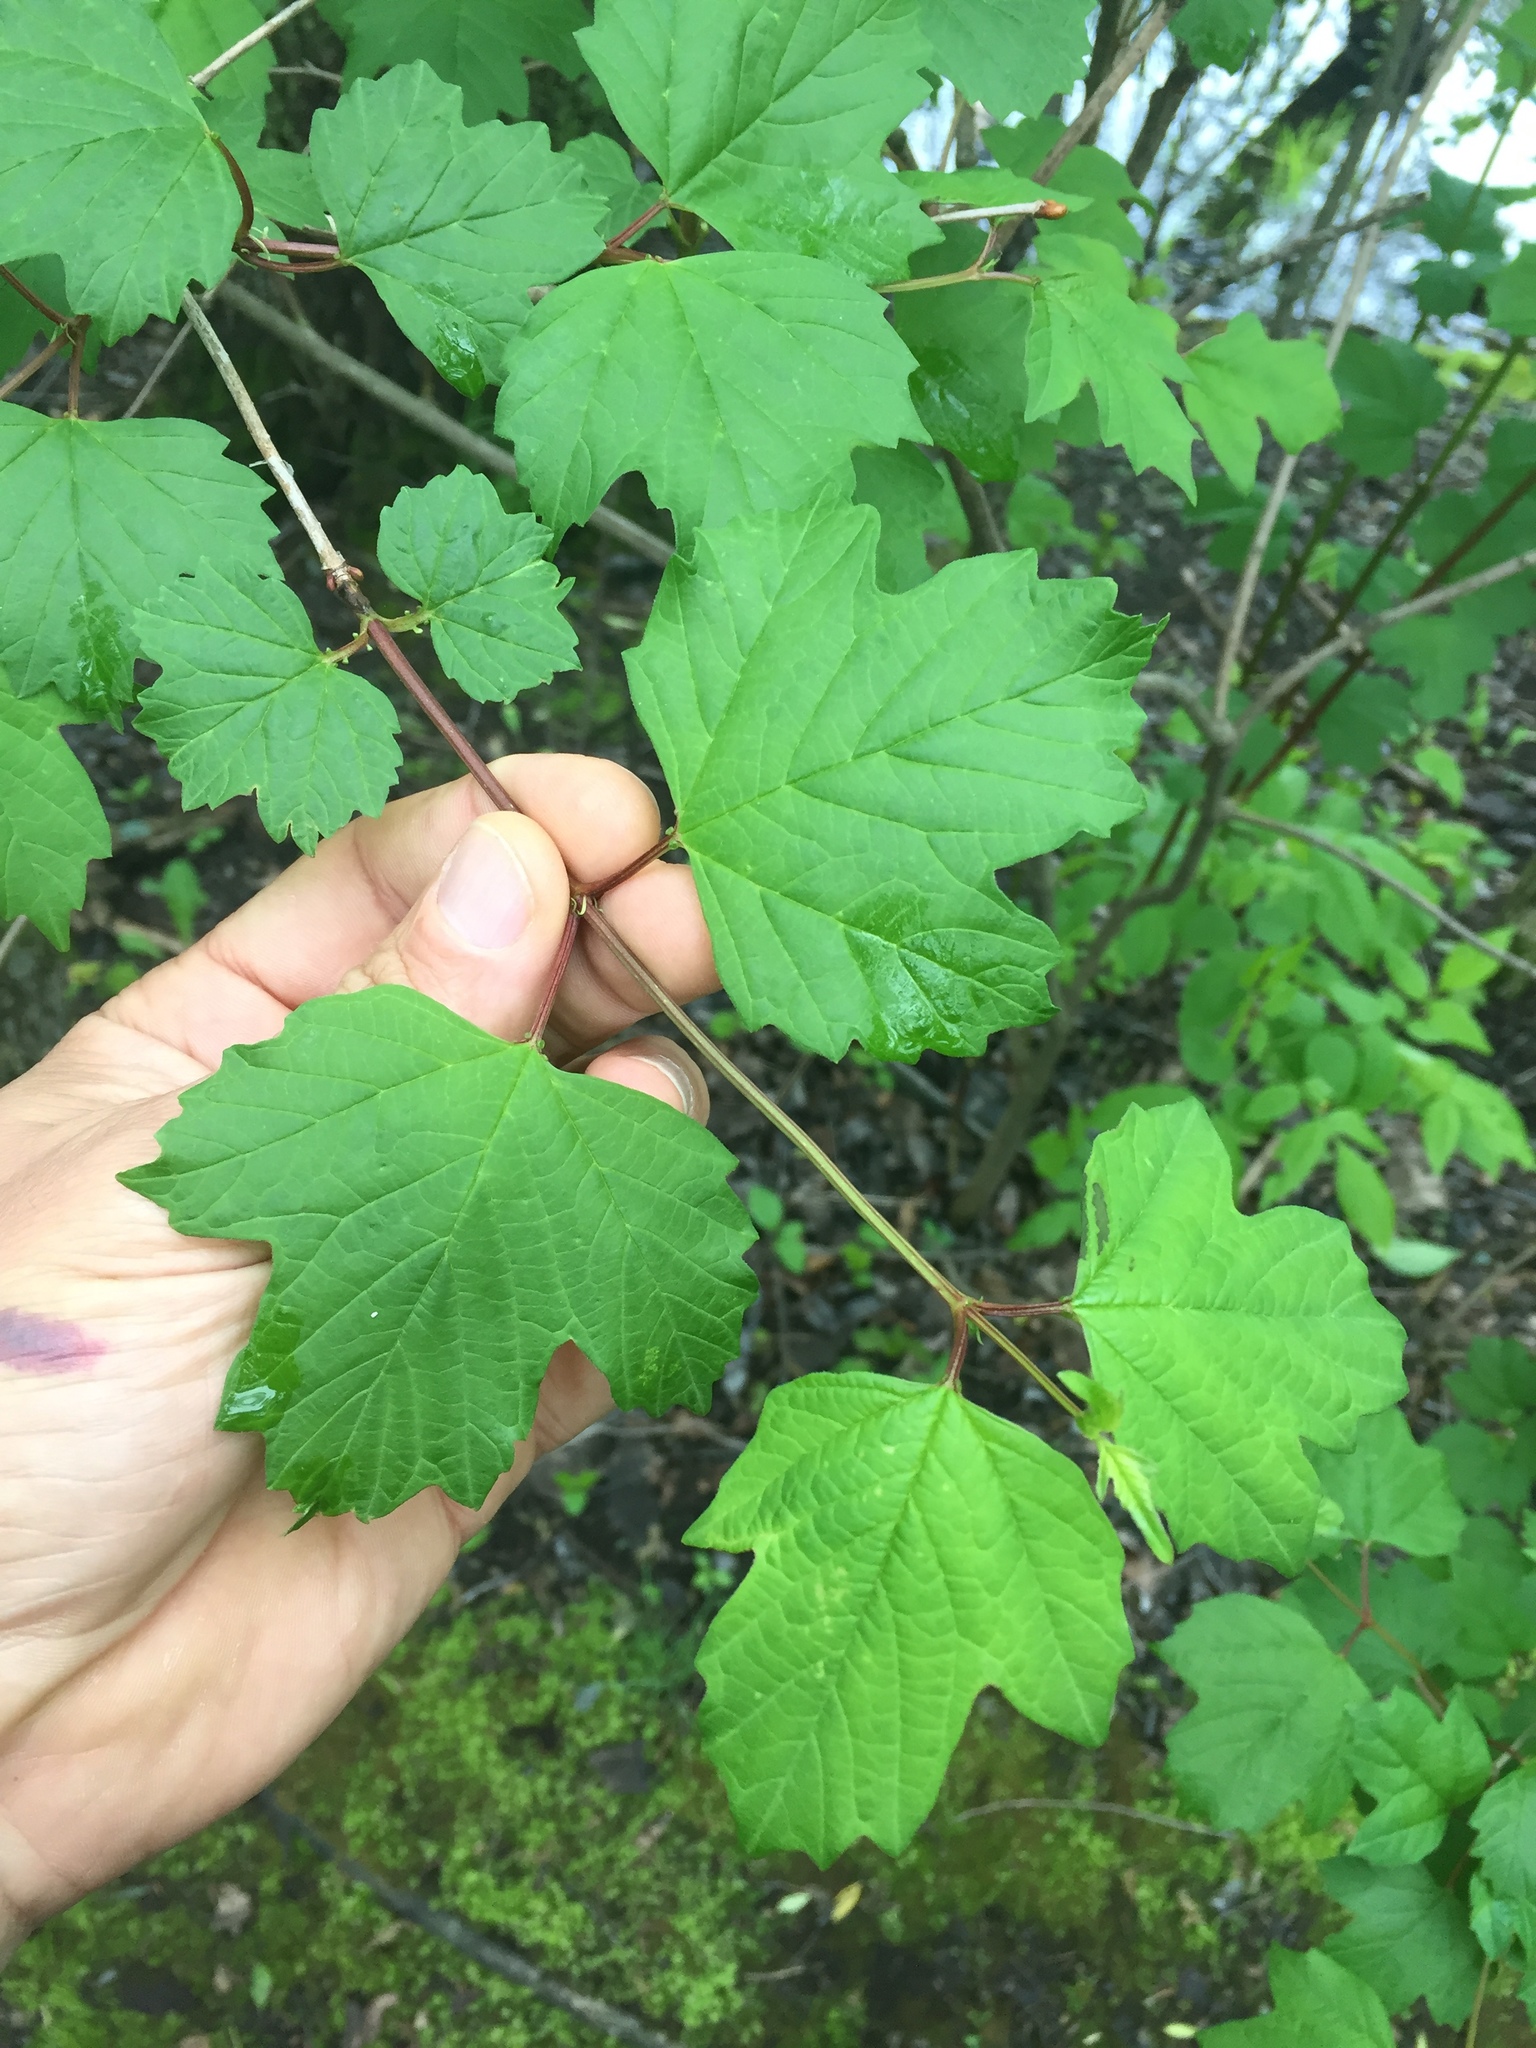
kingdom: Plantae
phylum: Tracheophyta
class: Magnoliopsida
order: Dipsacales
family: Viburnaceae
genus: Viburnum
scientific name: Viburnum opulus
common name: Guelder-rose
